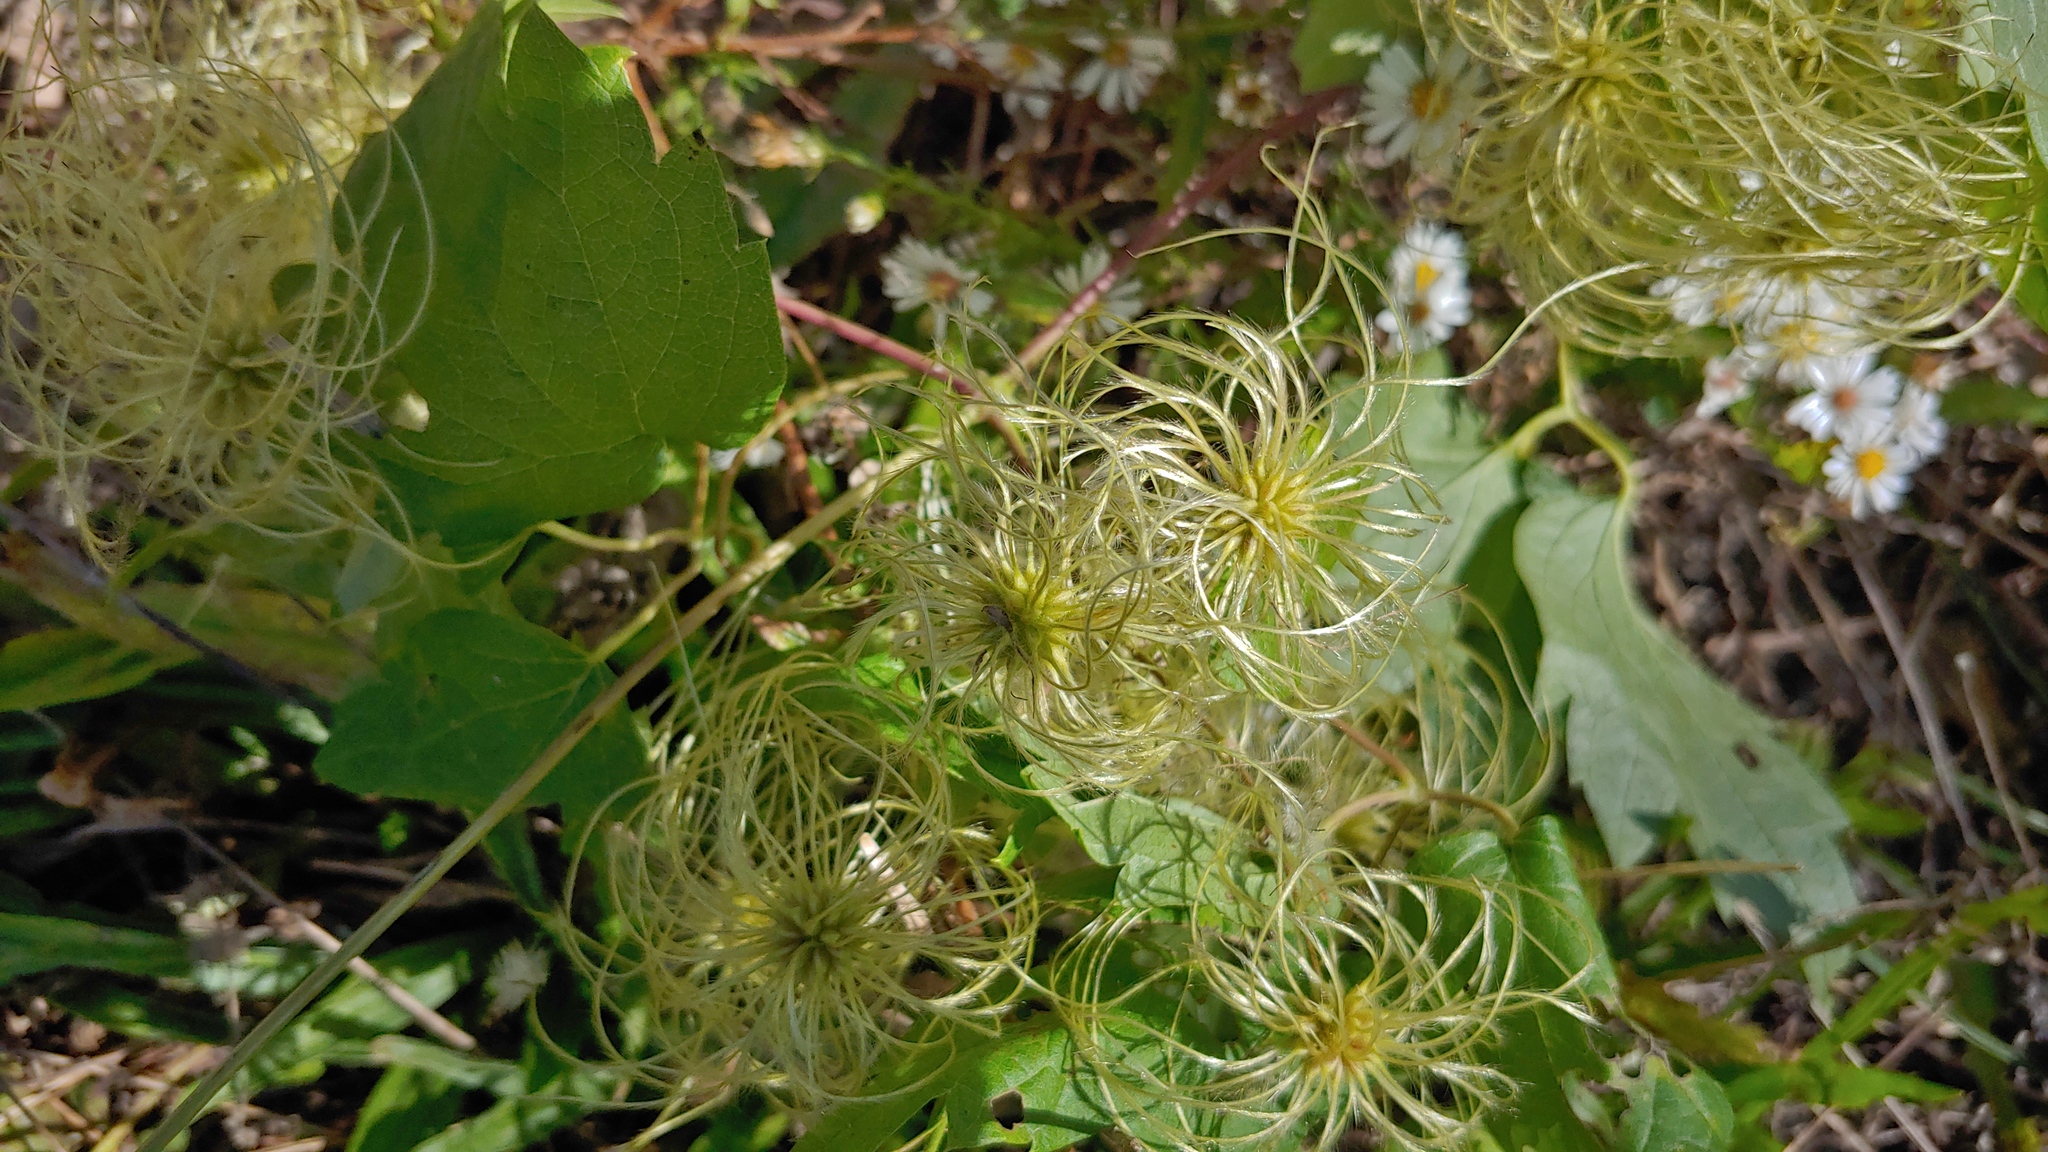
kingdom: Plantae
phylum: Tracheophyta
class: Magnoliopsida
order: Ranunculales
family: Ranunculaceae
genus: Clematis
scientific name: Clematis virginiana
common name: Virgin's-bower
